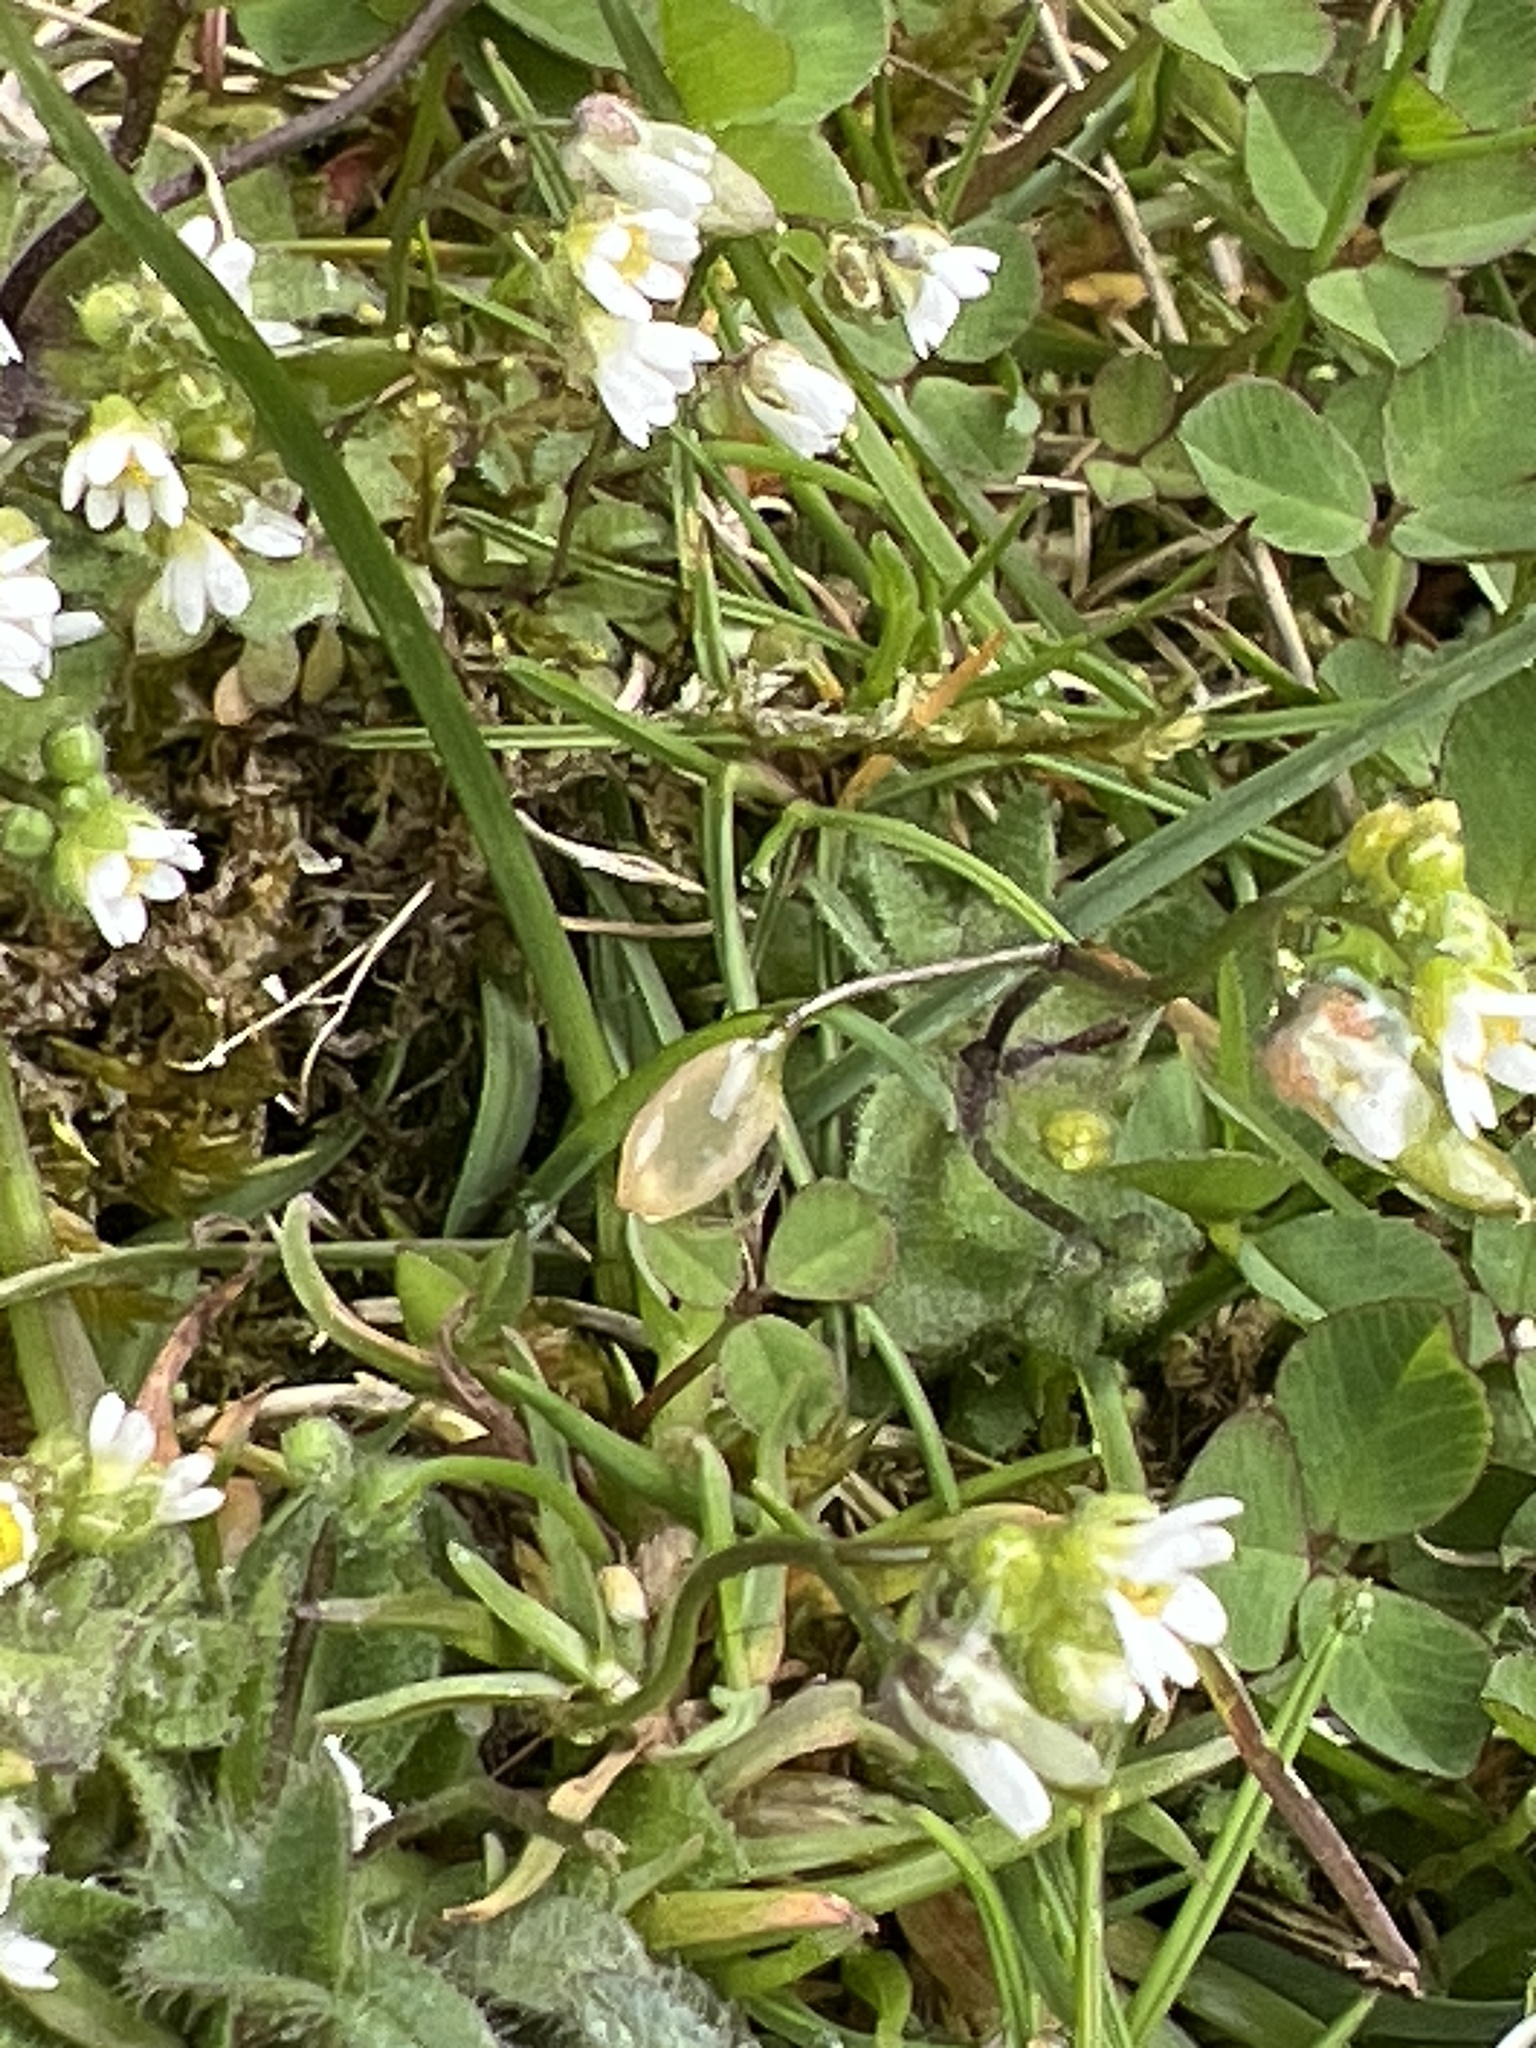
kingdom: Plantae
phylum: Tracheophyta
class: Magnoliopsida
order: Brassicales
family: Brassicaceae
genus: Draba
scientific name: Draba verna
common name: Spring draba
